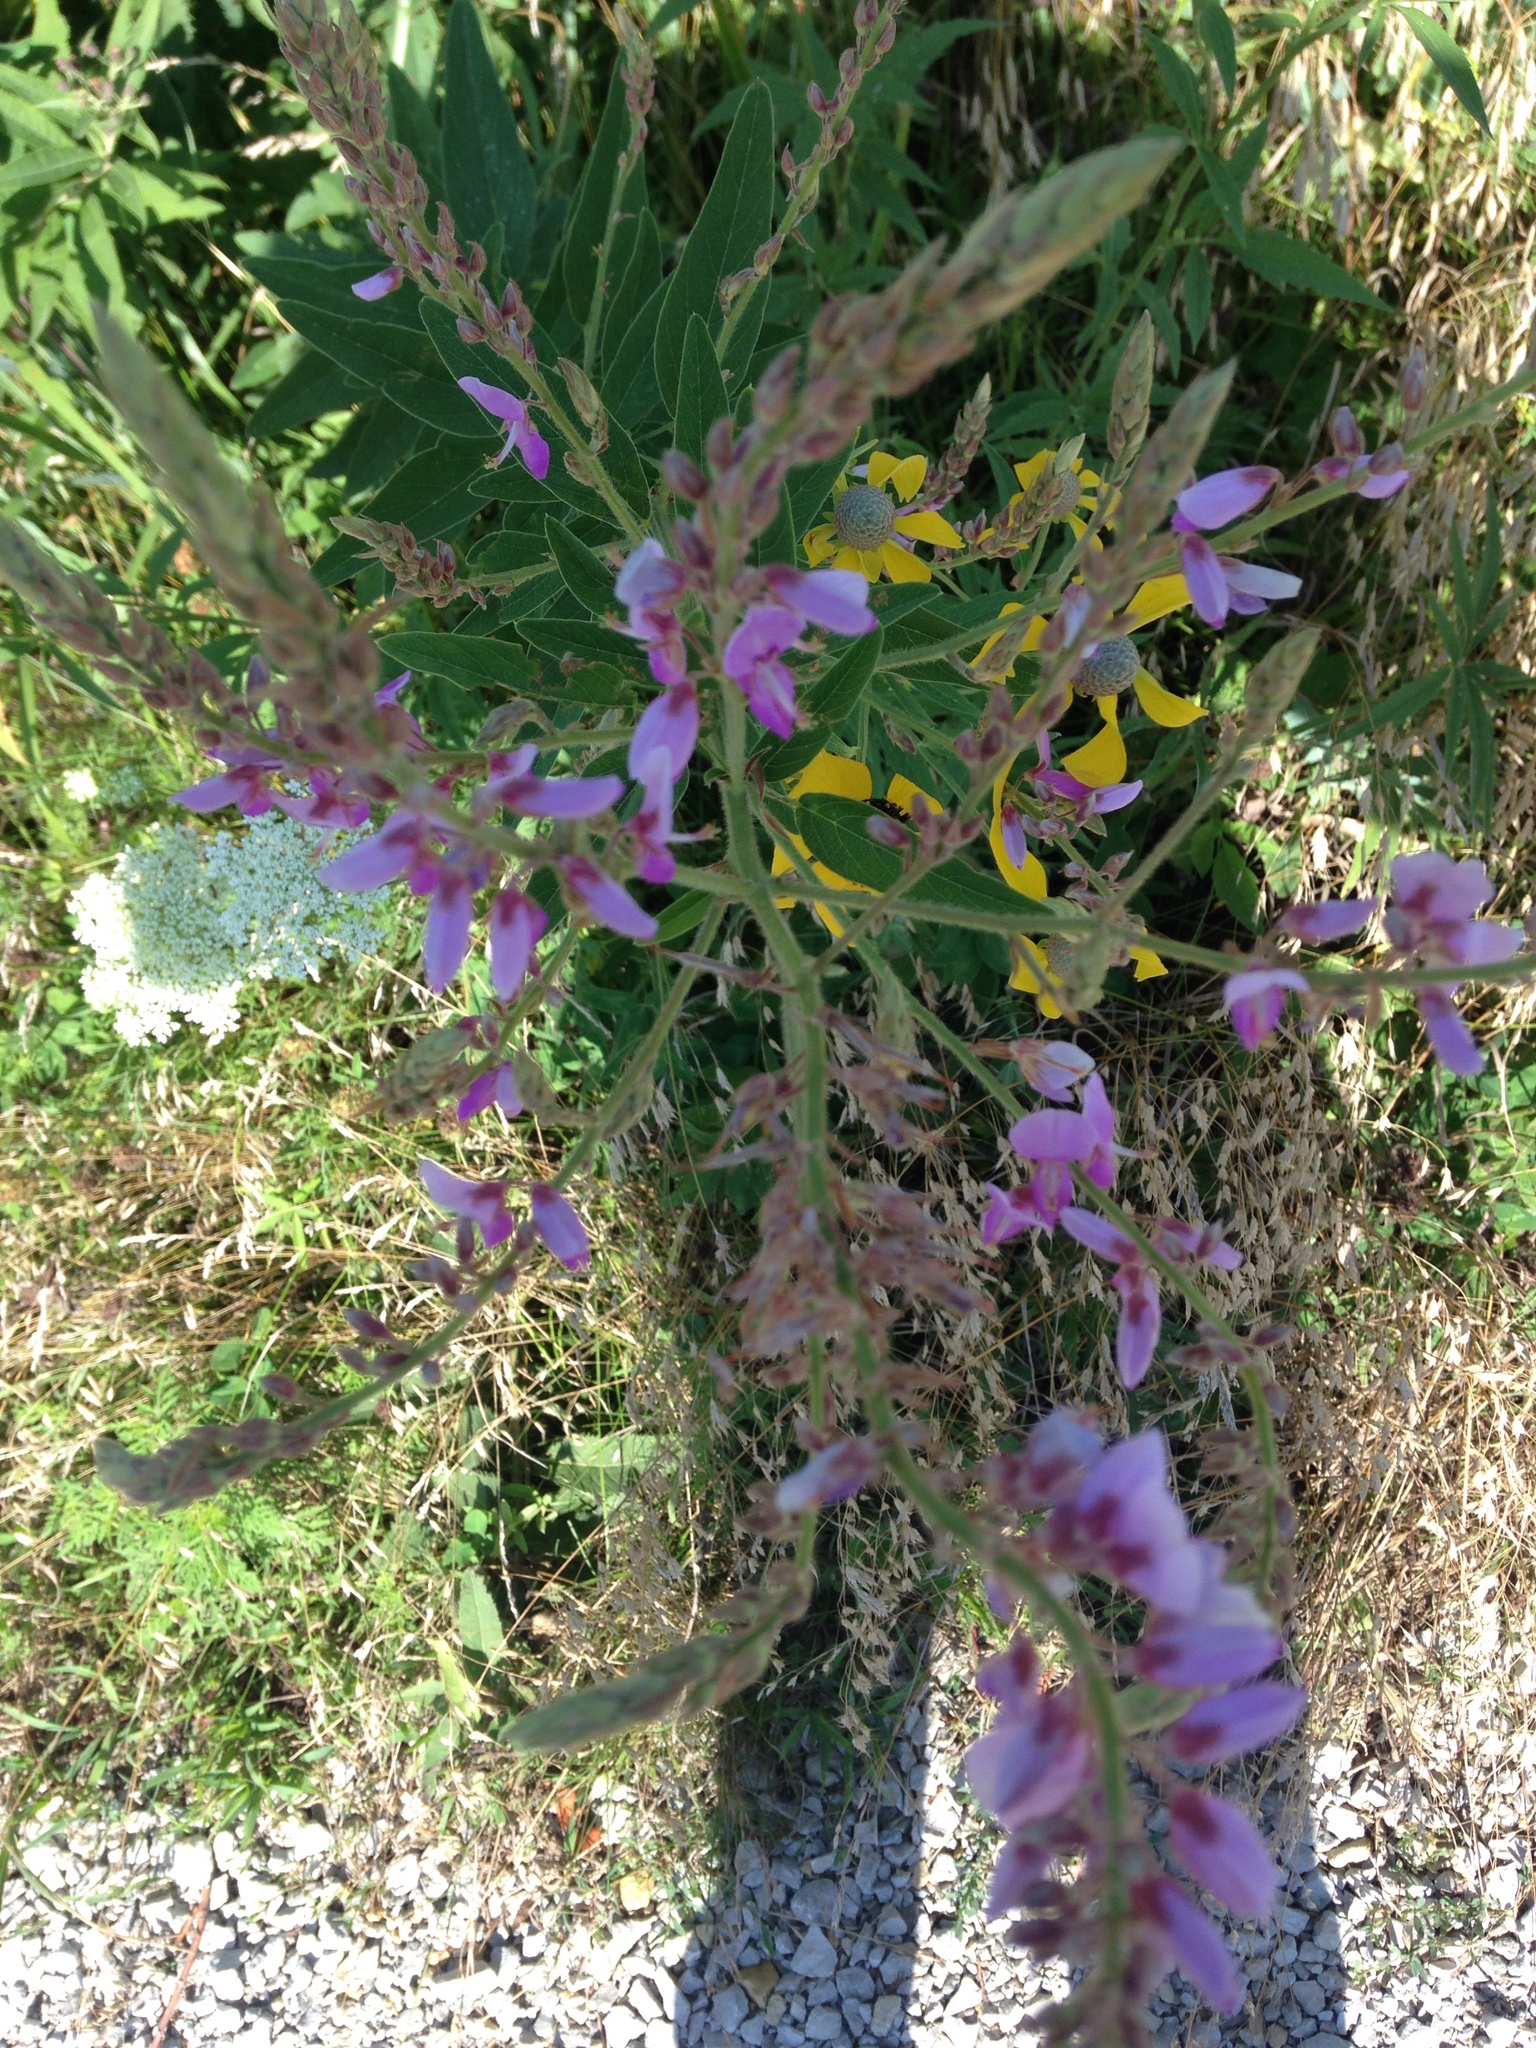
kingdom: Plantae
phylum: Tracheophyta
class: Magnoliopsida
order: Fabales
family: Fabaceae
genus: Desmodium
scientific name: Desmodium canadense
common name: Canada tick-trefoil
